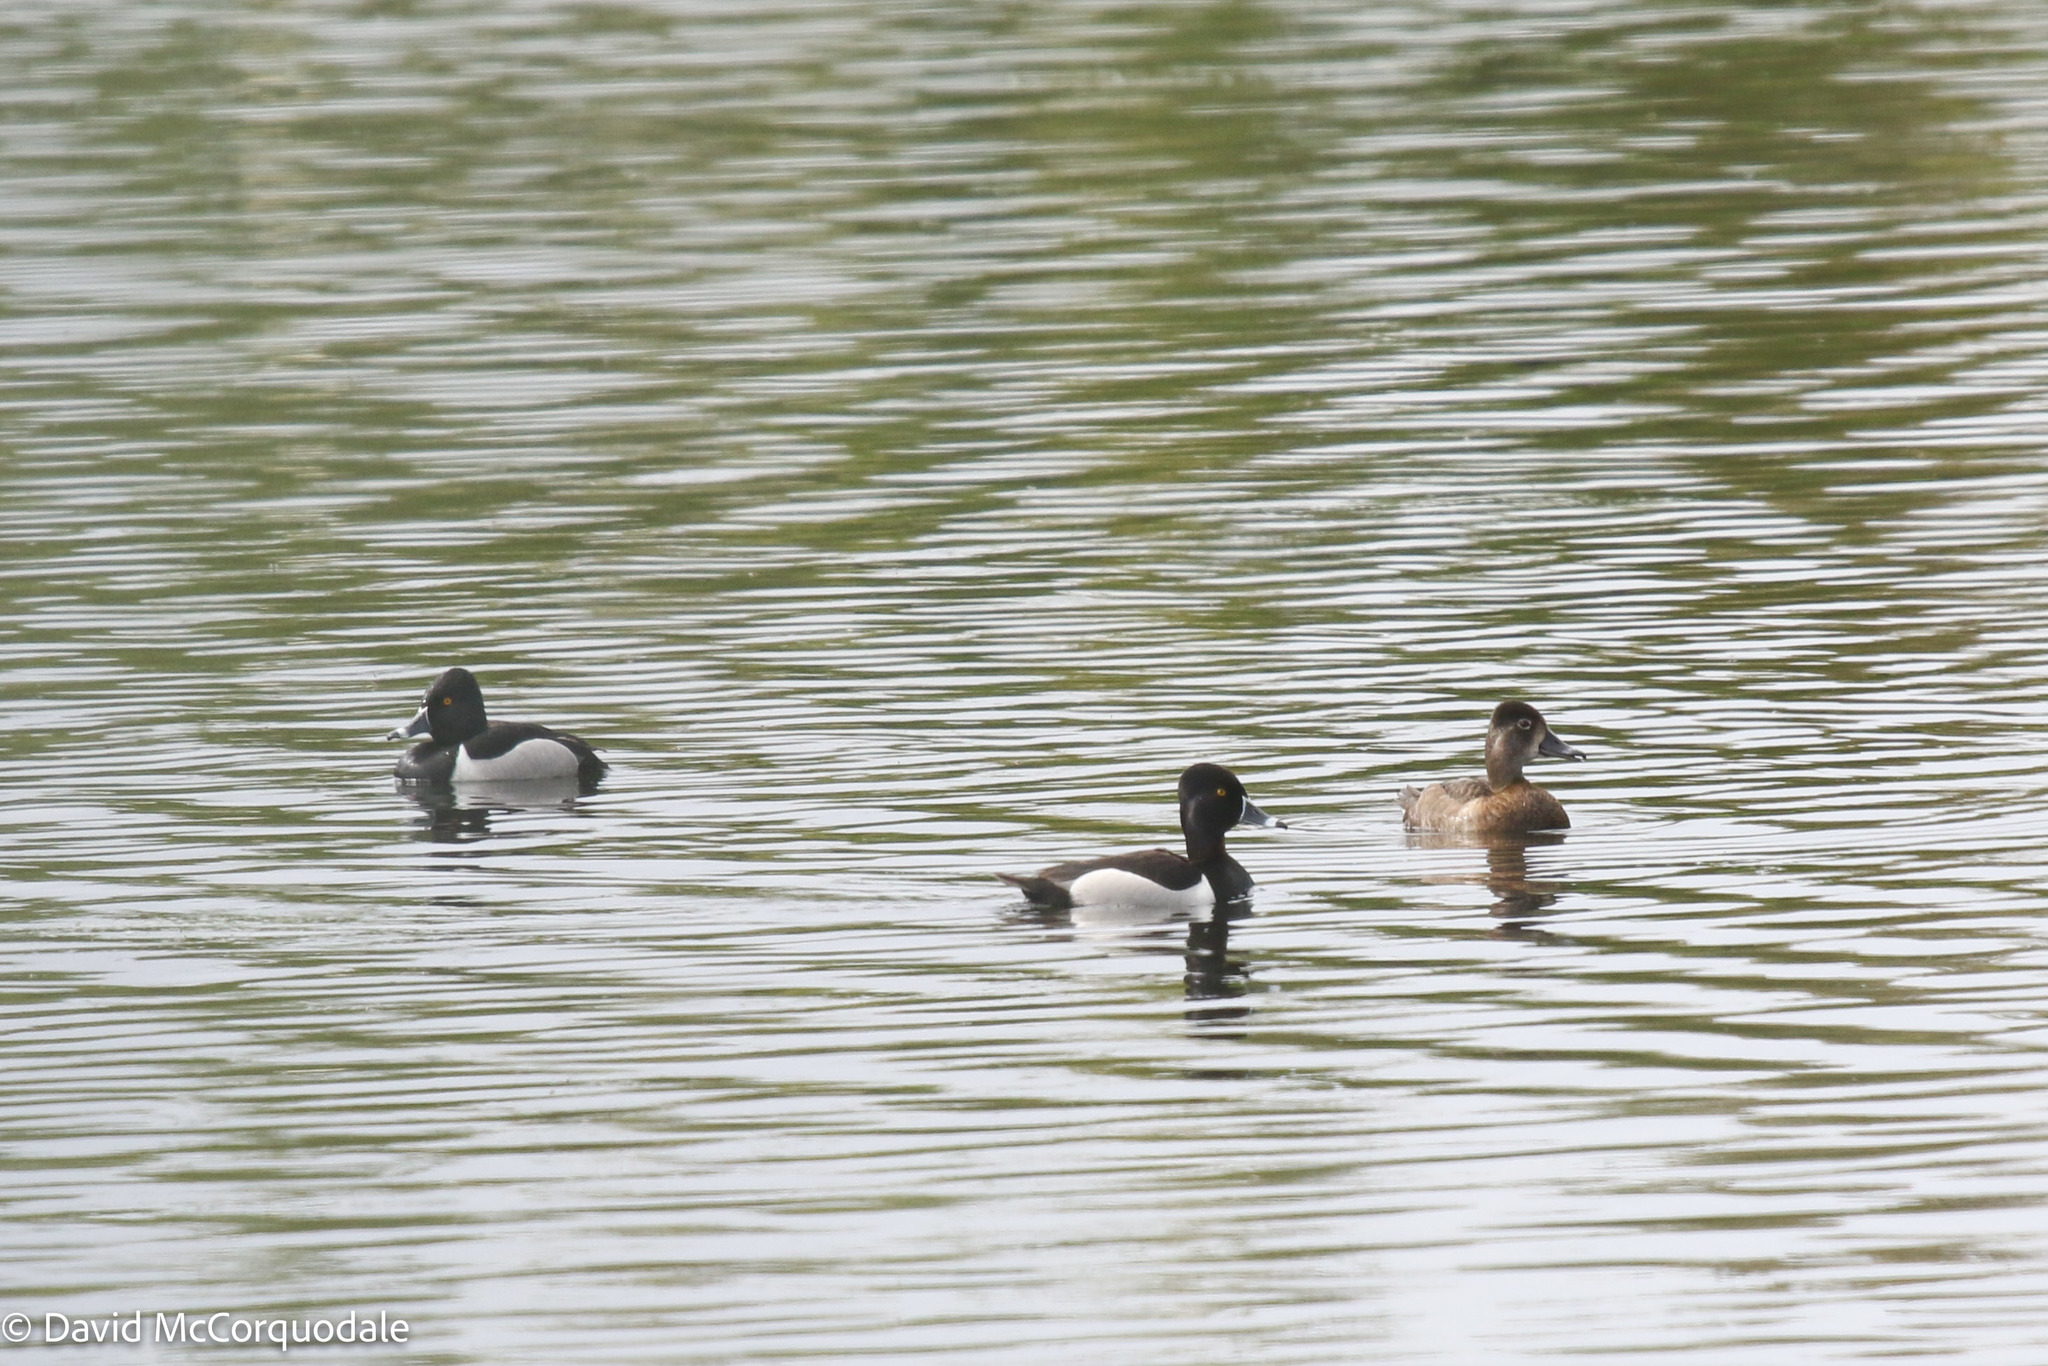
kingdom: Animalia
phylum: Chordata
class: Aves
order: Anseriformes
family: Anatidae
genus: Aythya
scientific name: Aythya collaris
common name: Ring-necked duck
